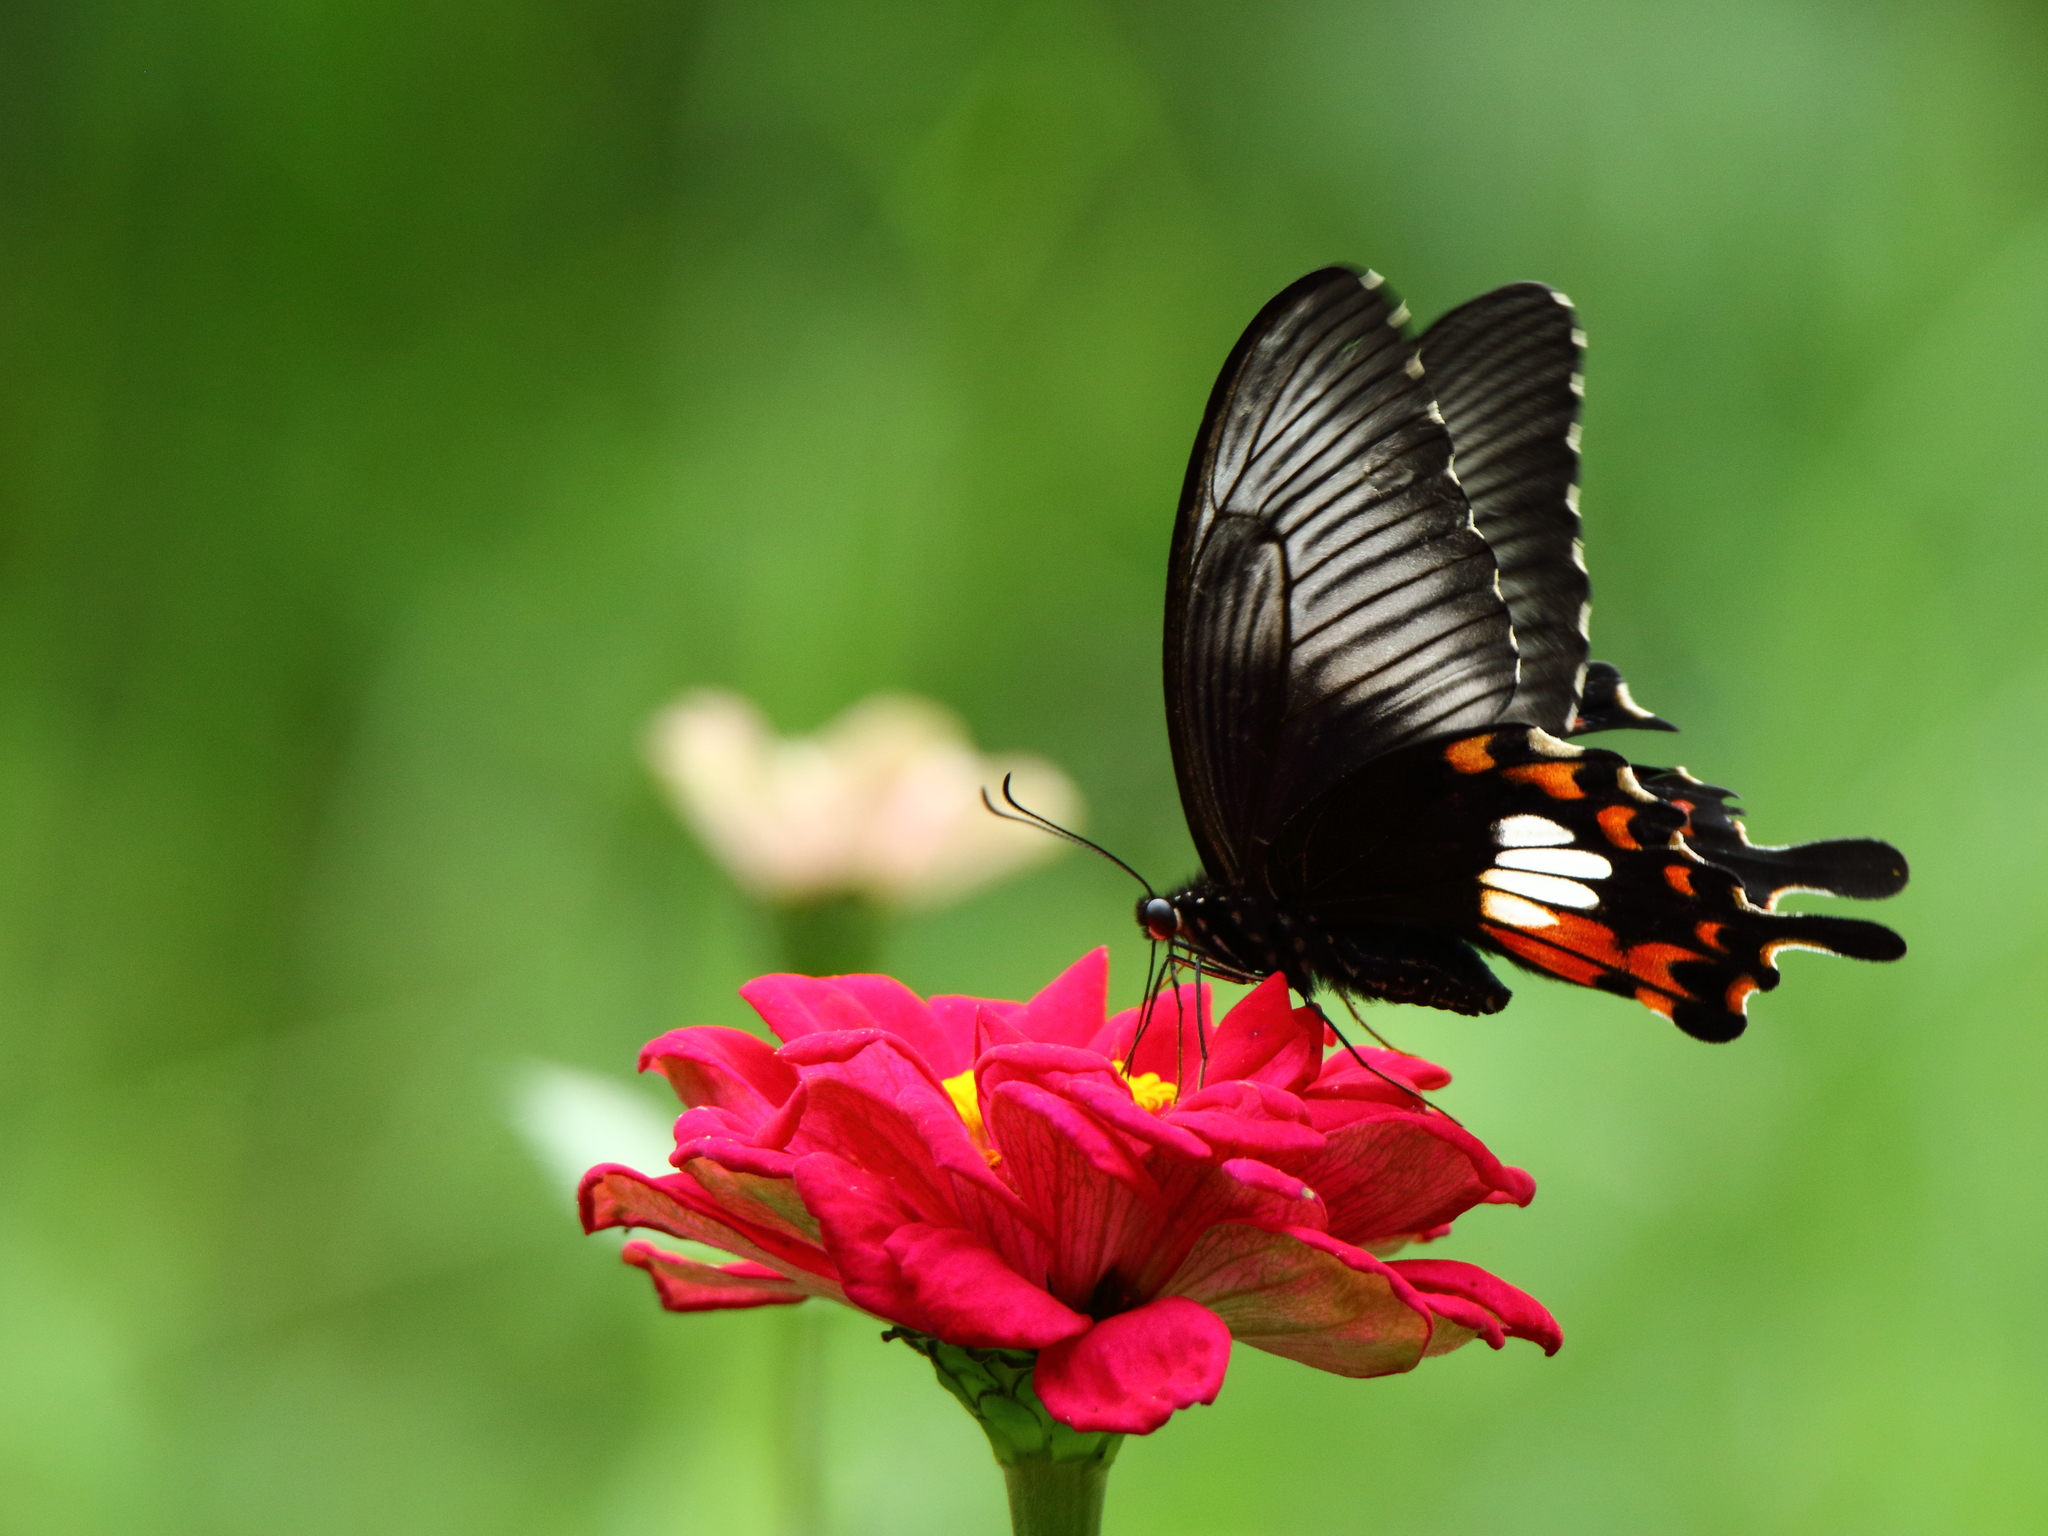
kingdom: Animalia
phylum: Arthropoda
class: Insecta
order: Lepidoptera
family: Papilionidae
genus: Papilio
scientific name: Papilio polytes
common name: Common mormon
